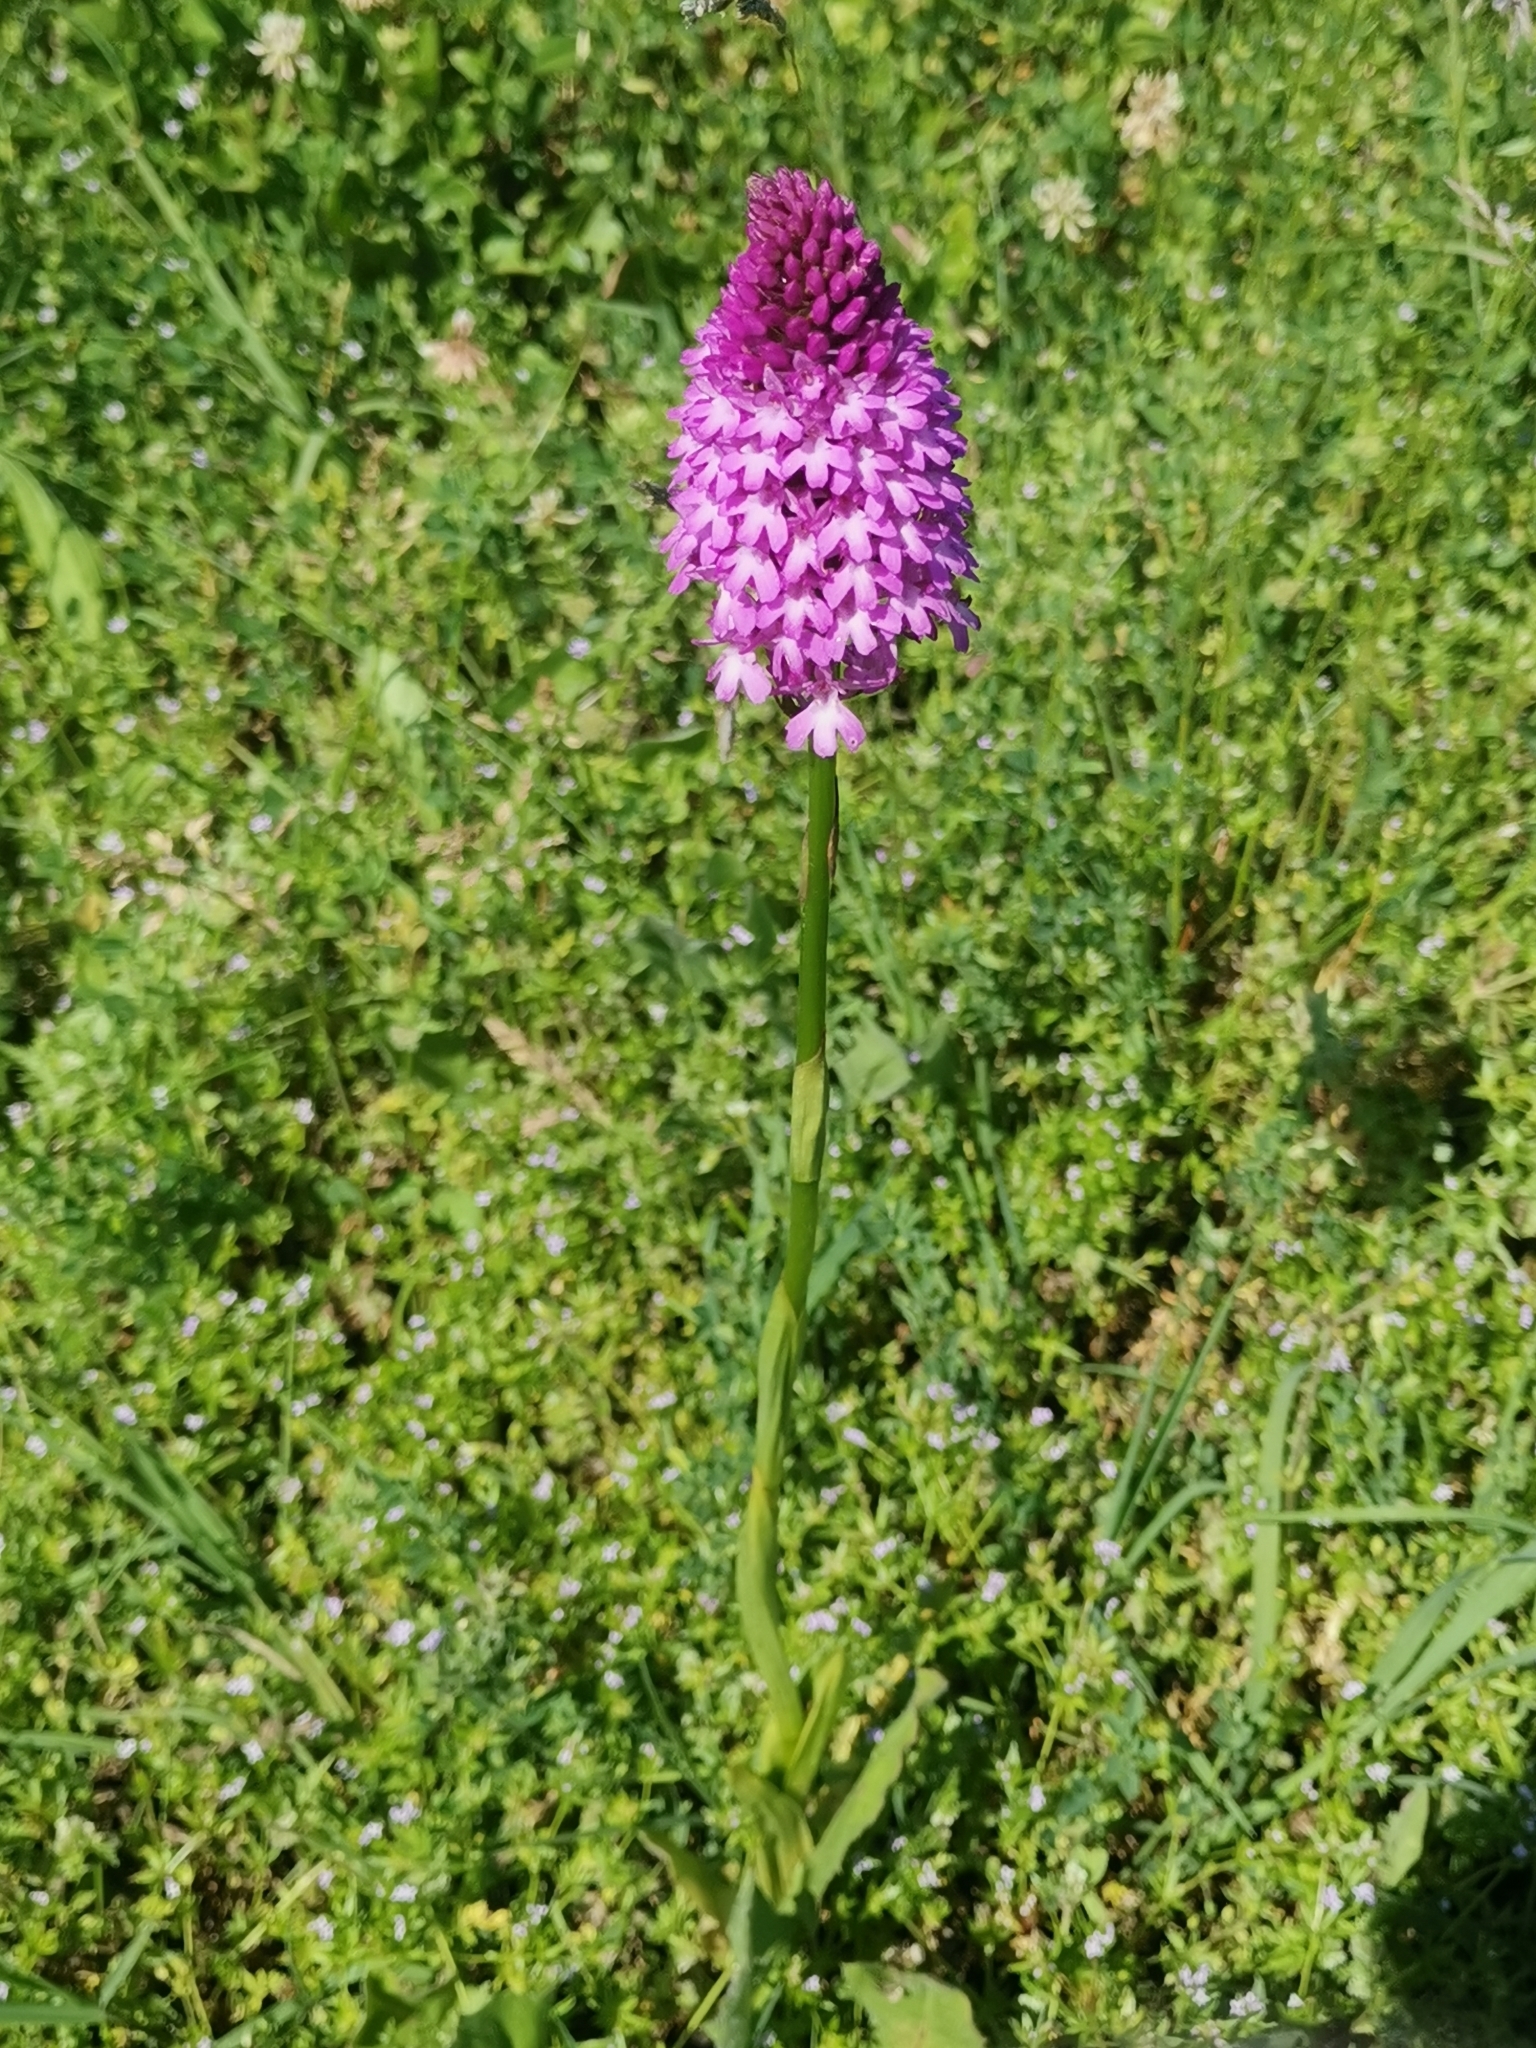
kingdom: Plantae
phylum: Tracheophyta
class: Liliopsida
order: Asparagales
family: Orchidaceae
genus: Anacamptis
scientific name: Anacamptis pyramidalis
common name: Pyramidal orchid
